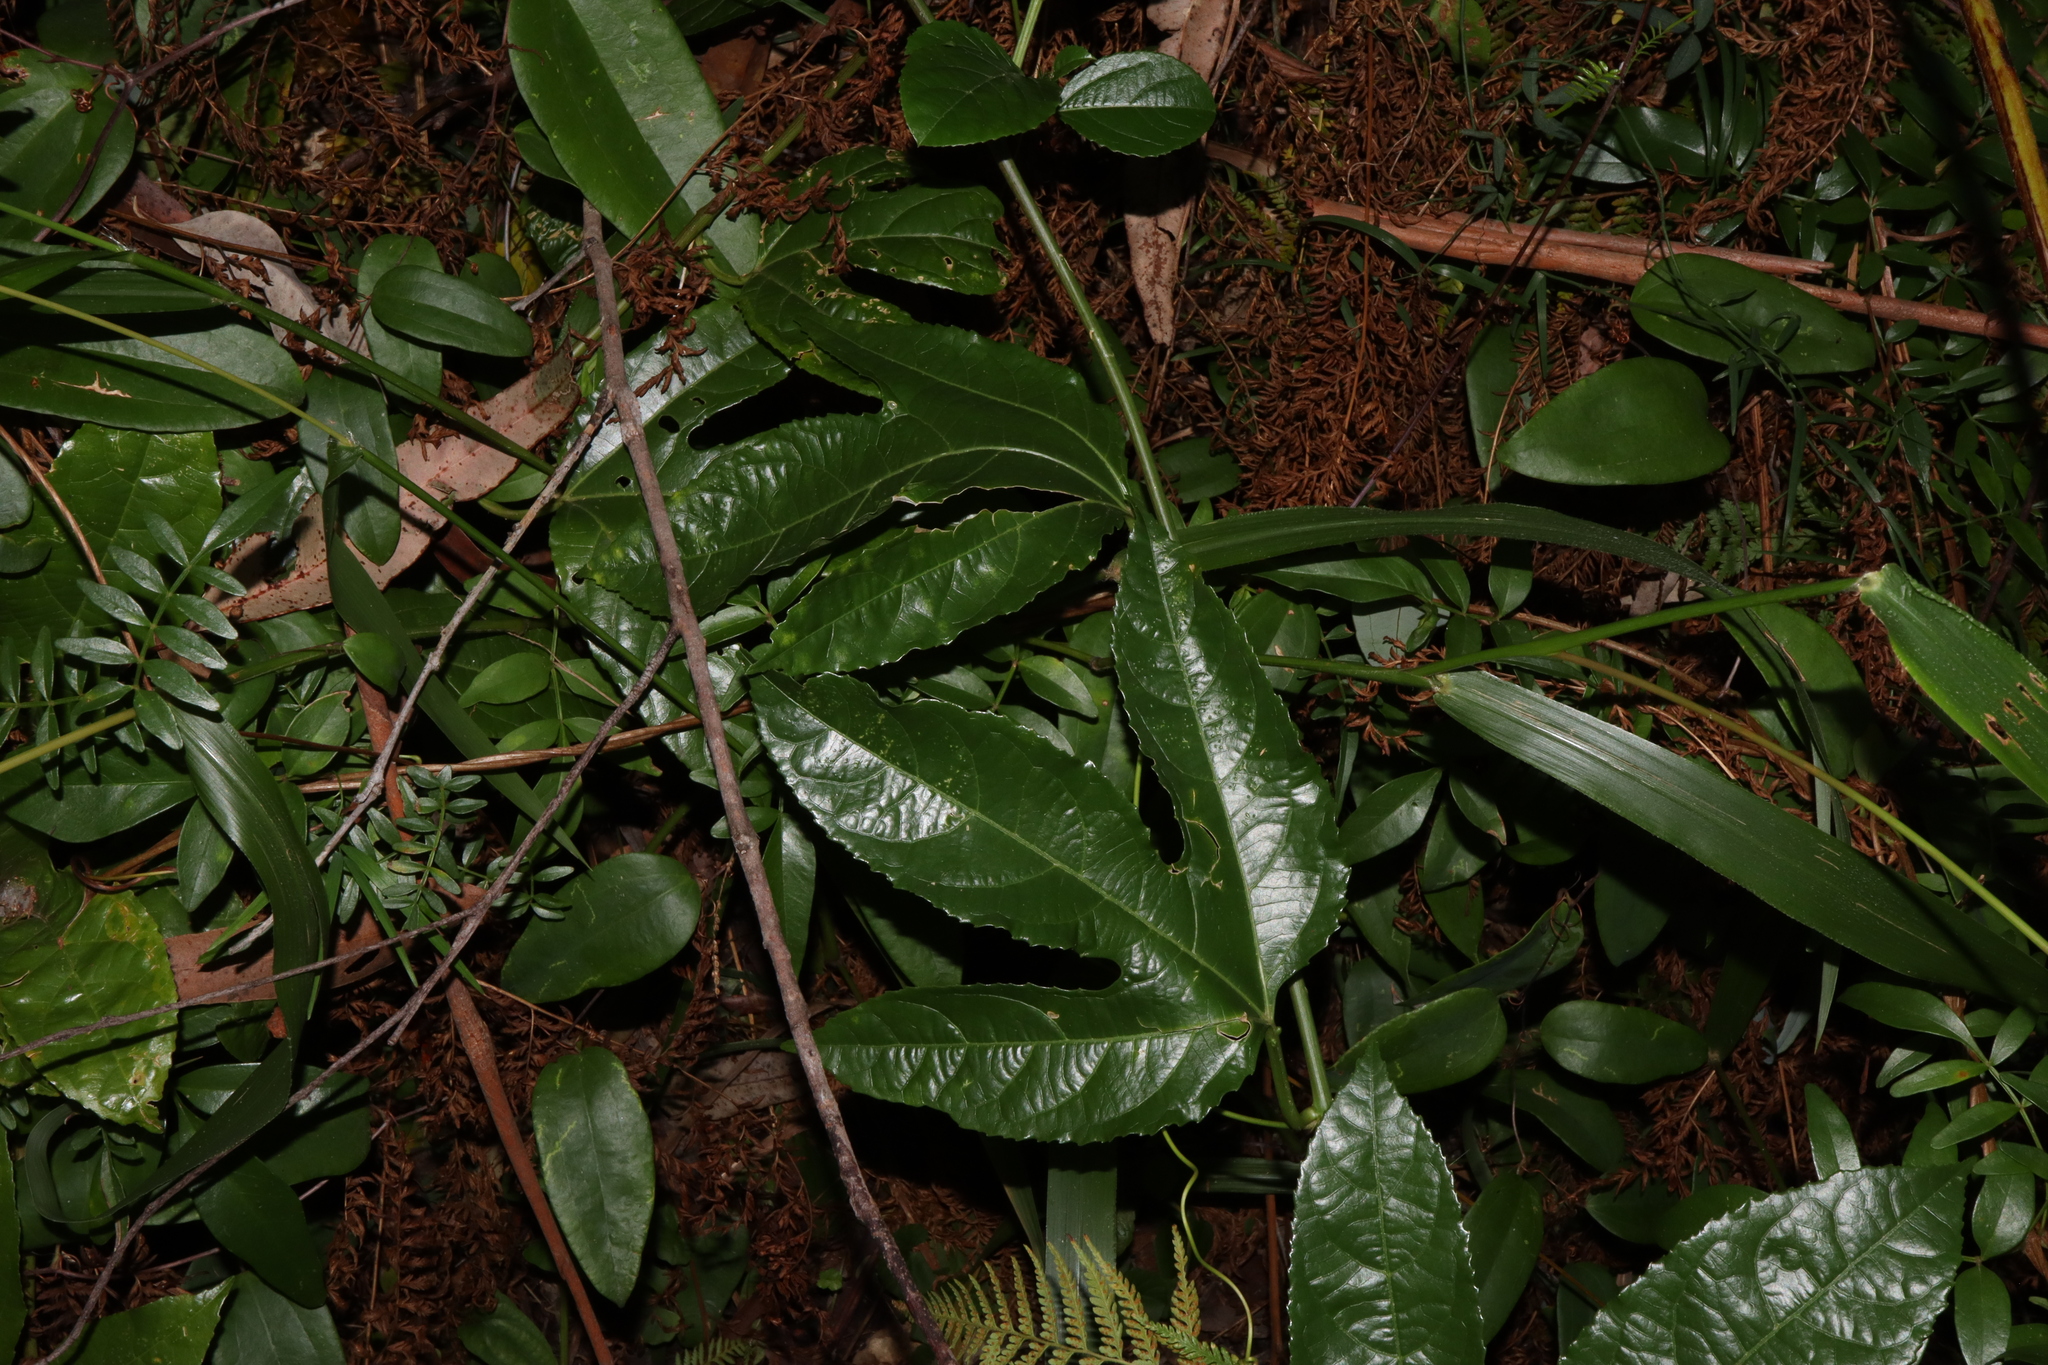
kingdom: Plantae
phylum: Tracheophyta
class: Magnoliopsida
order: Malpighiales
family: Passifloraceae
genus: Passiflora
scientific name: Passiflora edulis
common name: Purple granadilla
